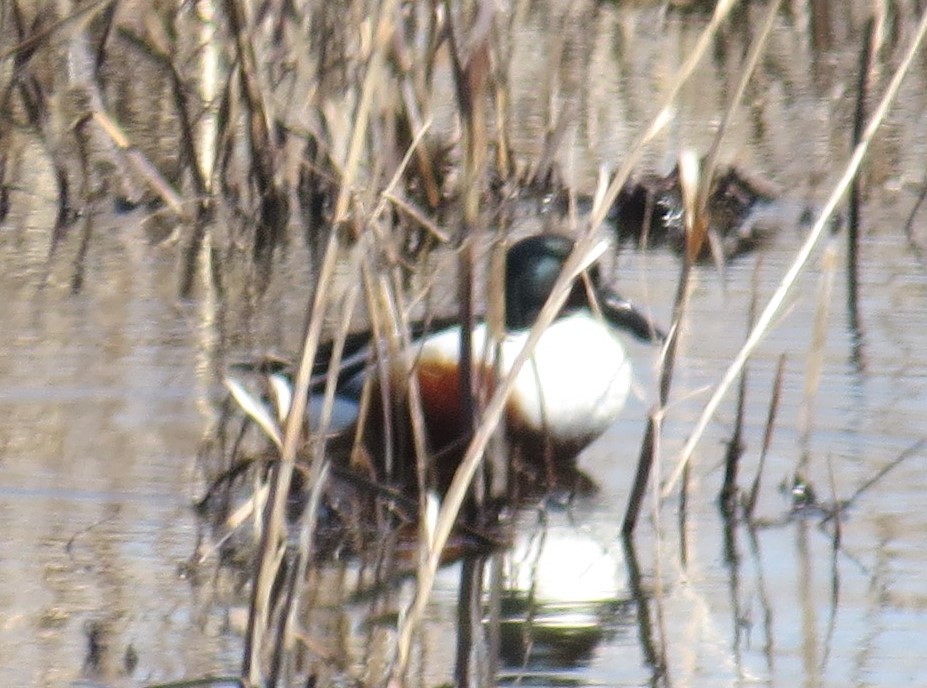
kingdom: Animalia
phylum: Chordata
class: Aves
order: Anseriformes
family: Anatidae
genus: Spatula
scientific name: Spatula clypeata
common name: Northern shoveler
